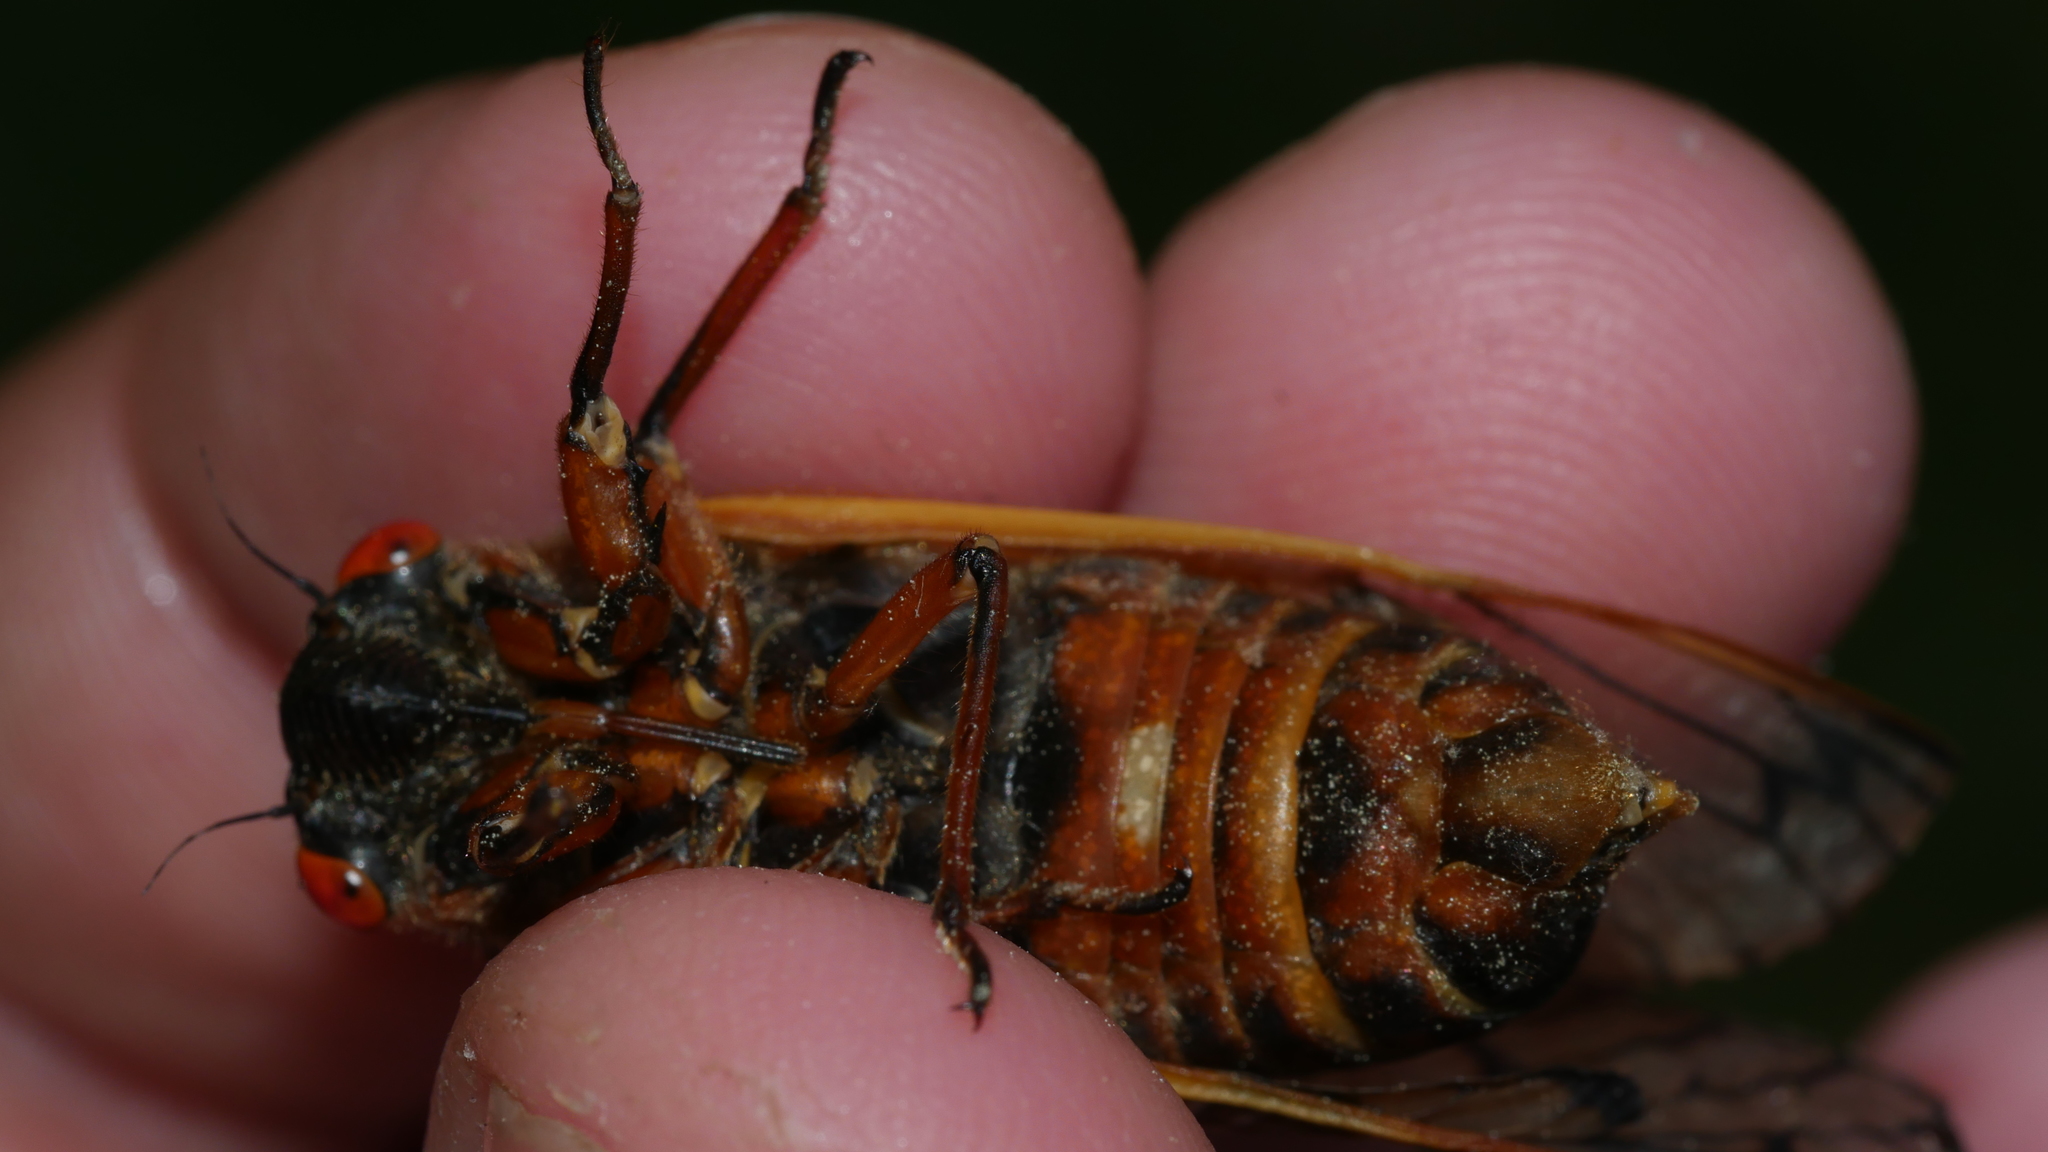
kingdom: Animalia
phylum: Arthropoda
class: Insecta
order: Hemiptera
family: Cicadidae
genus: Magicicada
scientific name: Magicicada septendecim
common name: Periodical cicada
